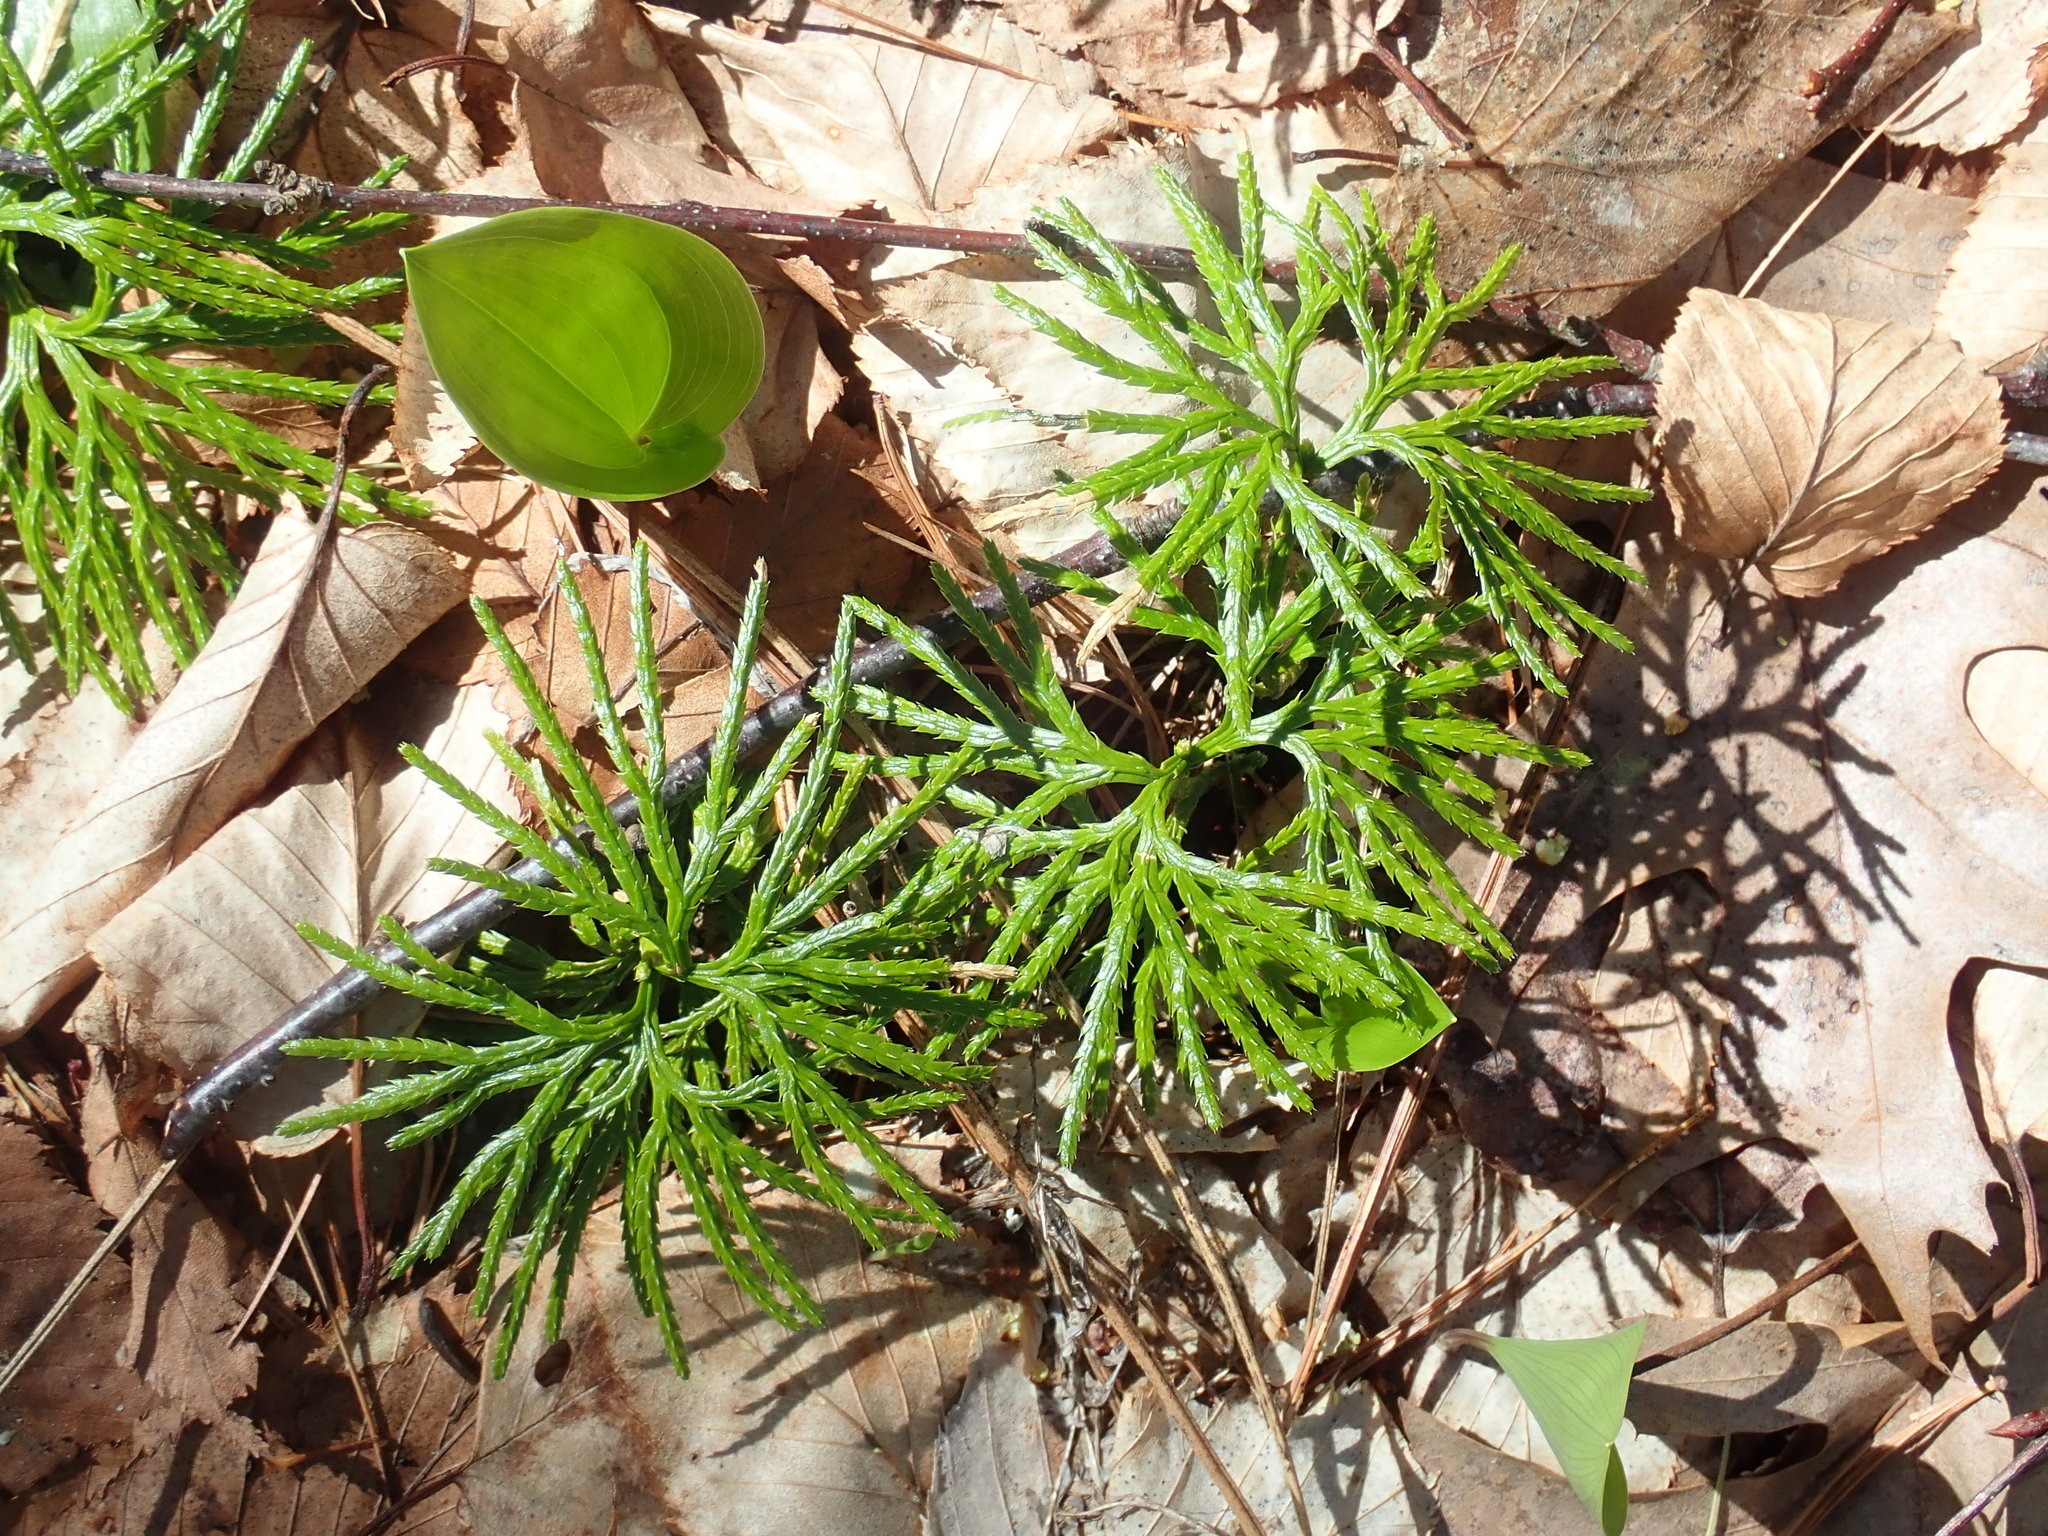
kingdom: Plantae
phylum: Tracheophyta
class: Lycopodiopsida
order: Lycopodiales
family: Lycopodiaceae
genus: Diphasiastrum
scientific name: Diphasiastrum digitatum
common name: Southern running-pine
